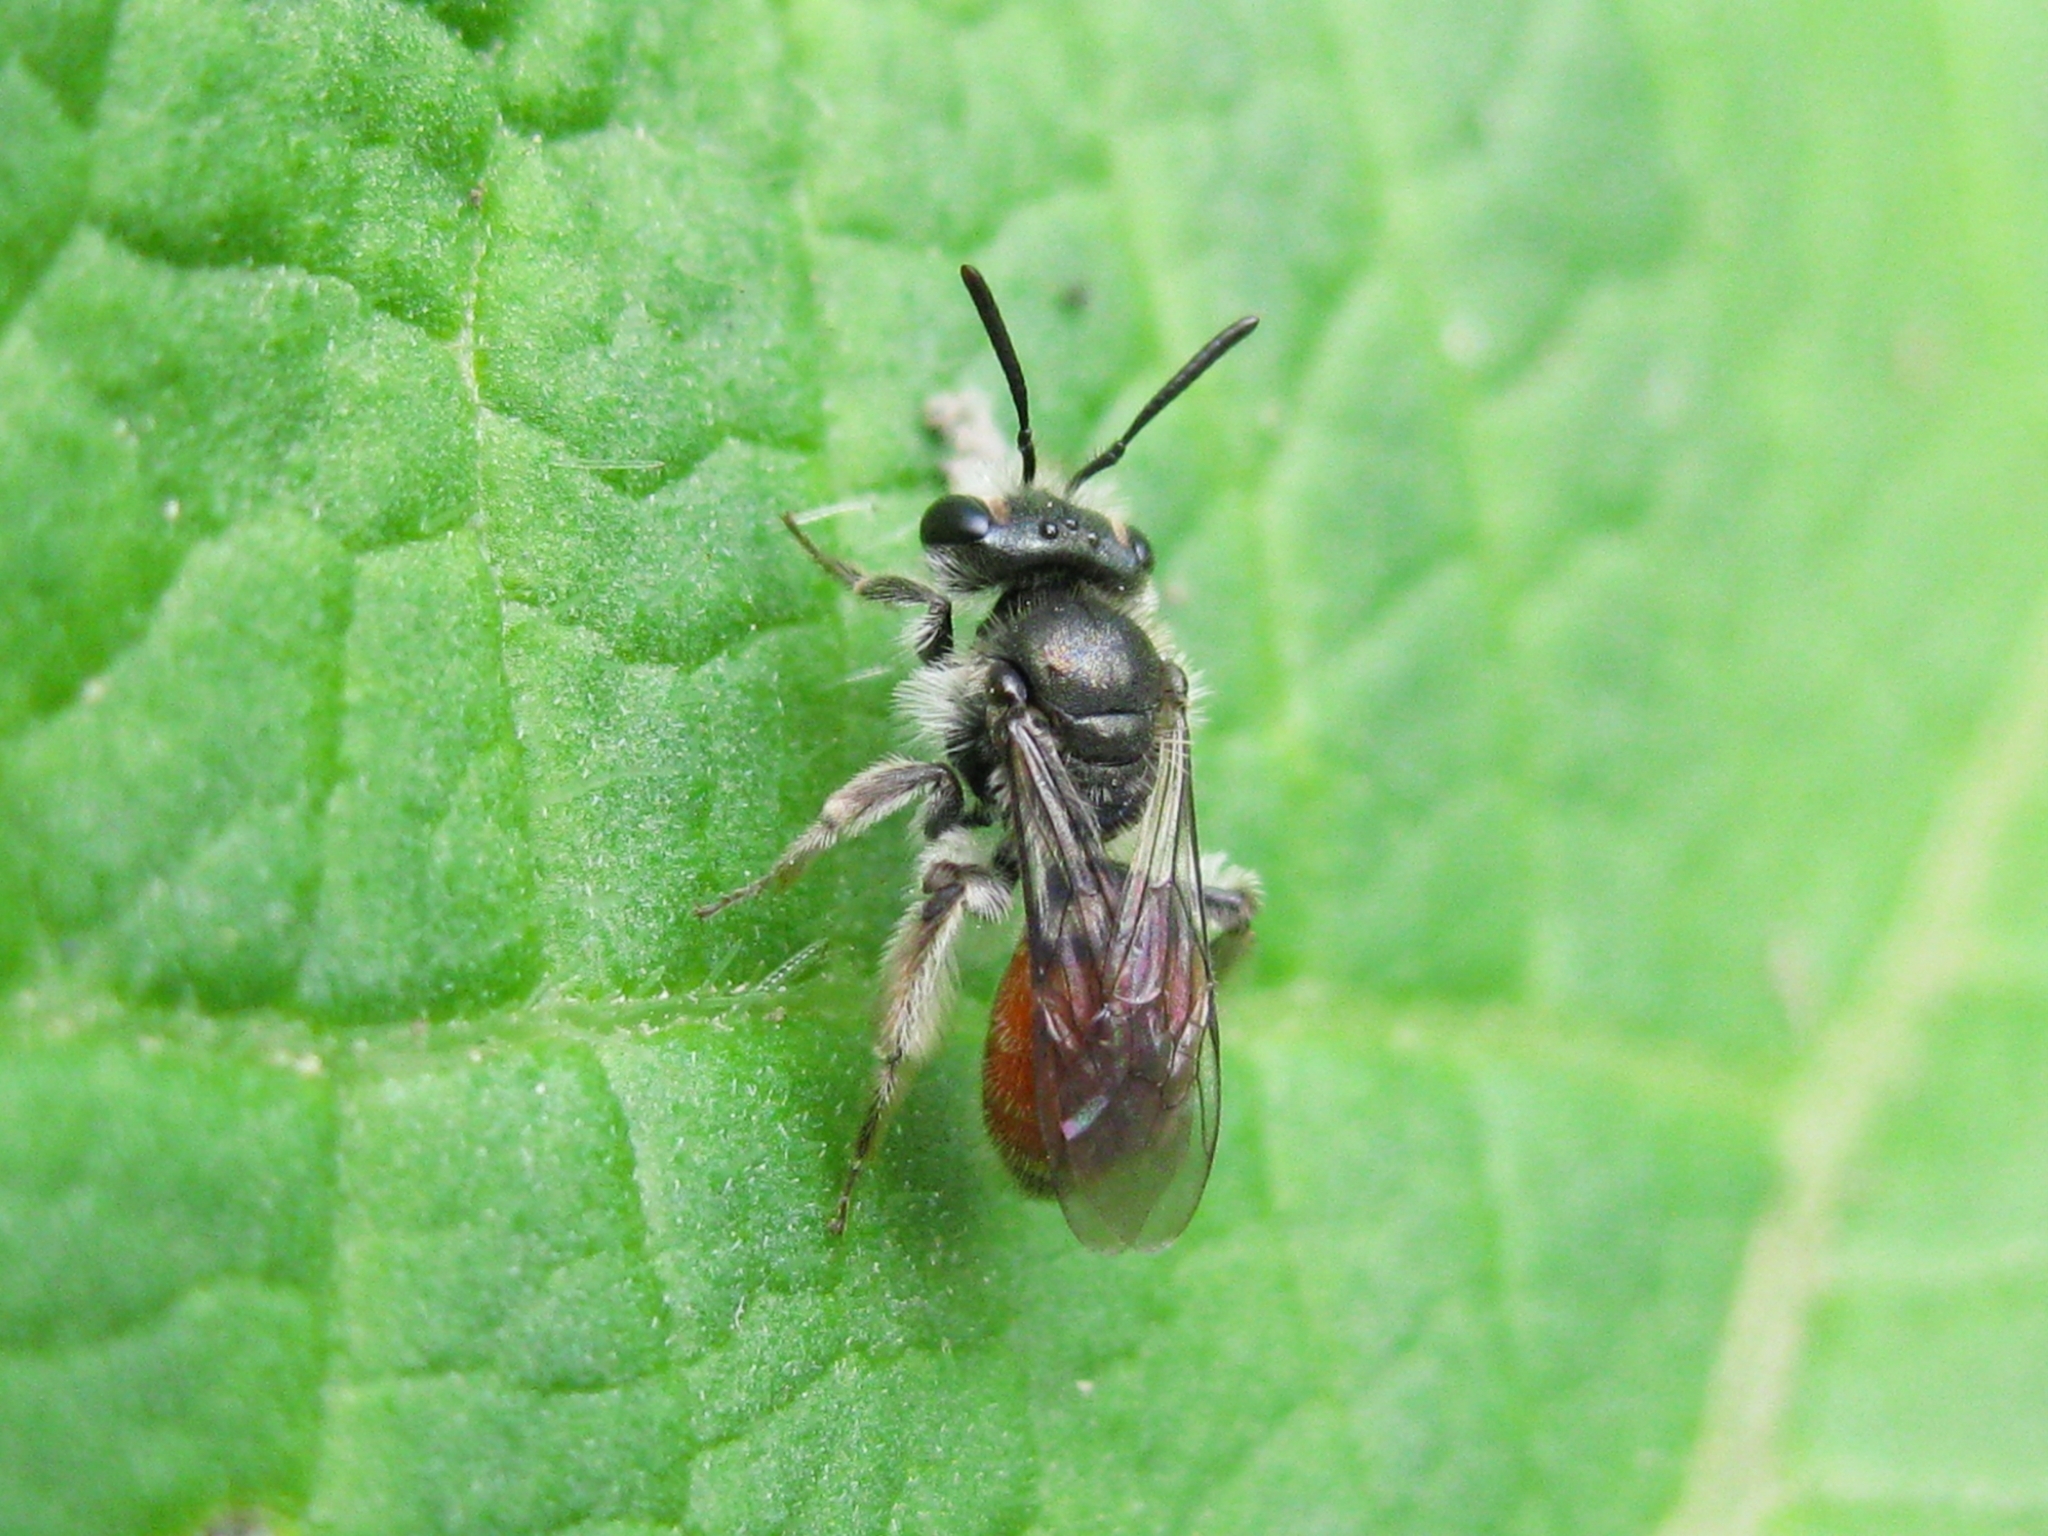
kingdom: Animalia
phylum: Arthropoda
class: Insecta
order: Hymenoptera
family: Andrenidae
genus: Andrena
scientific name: Andrena
